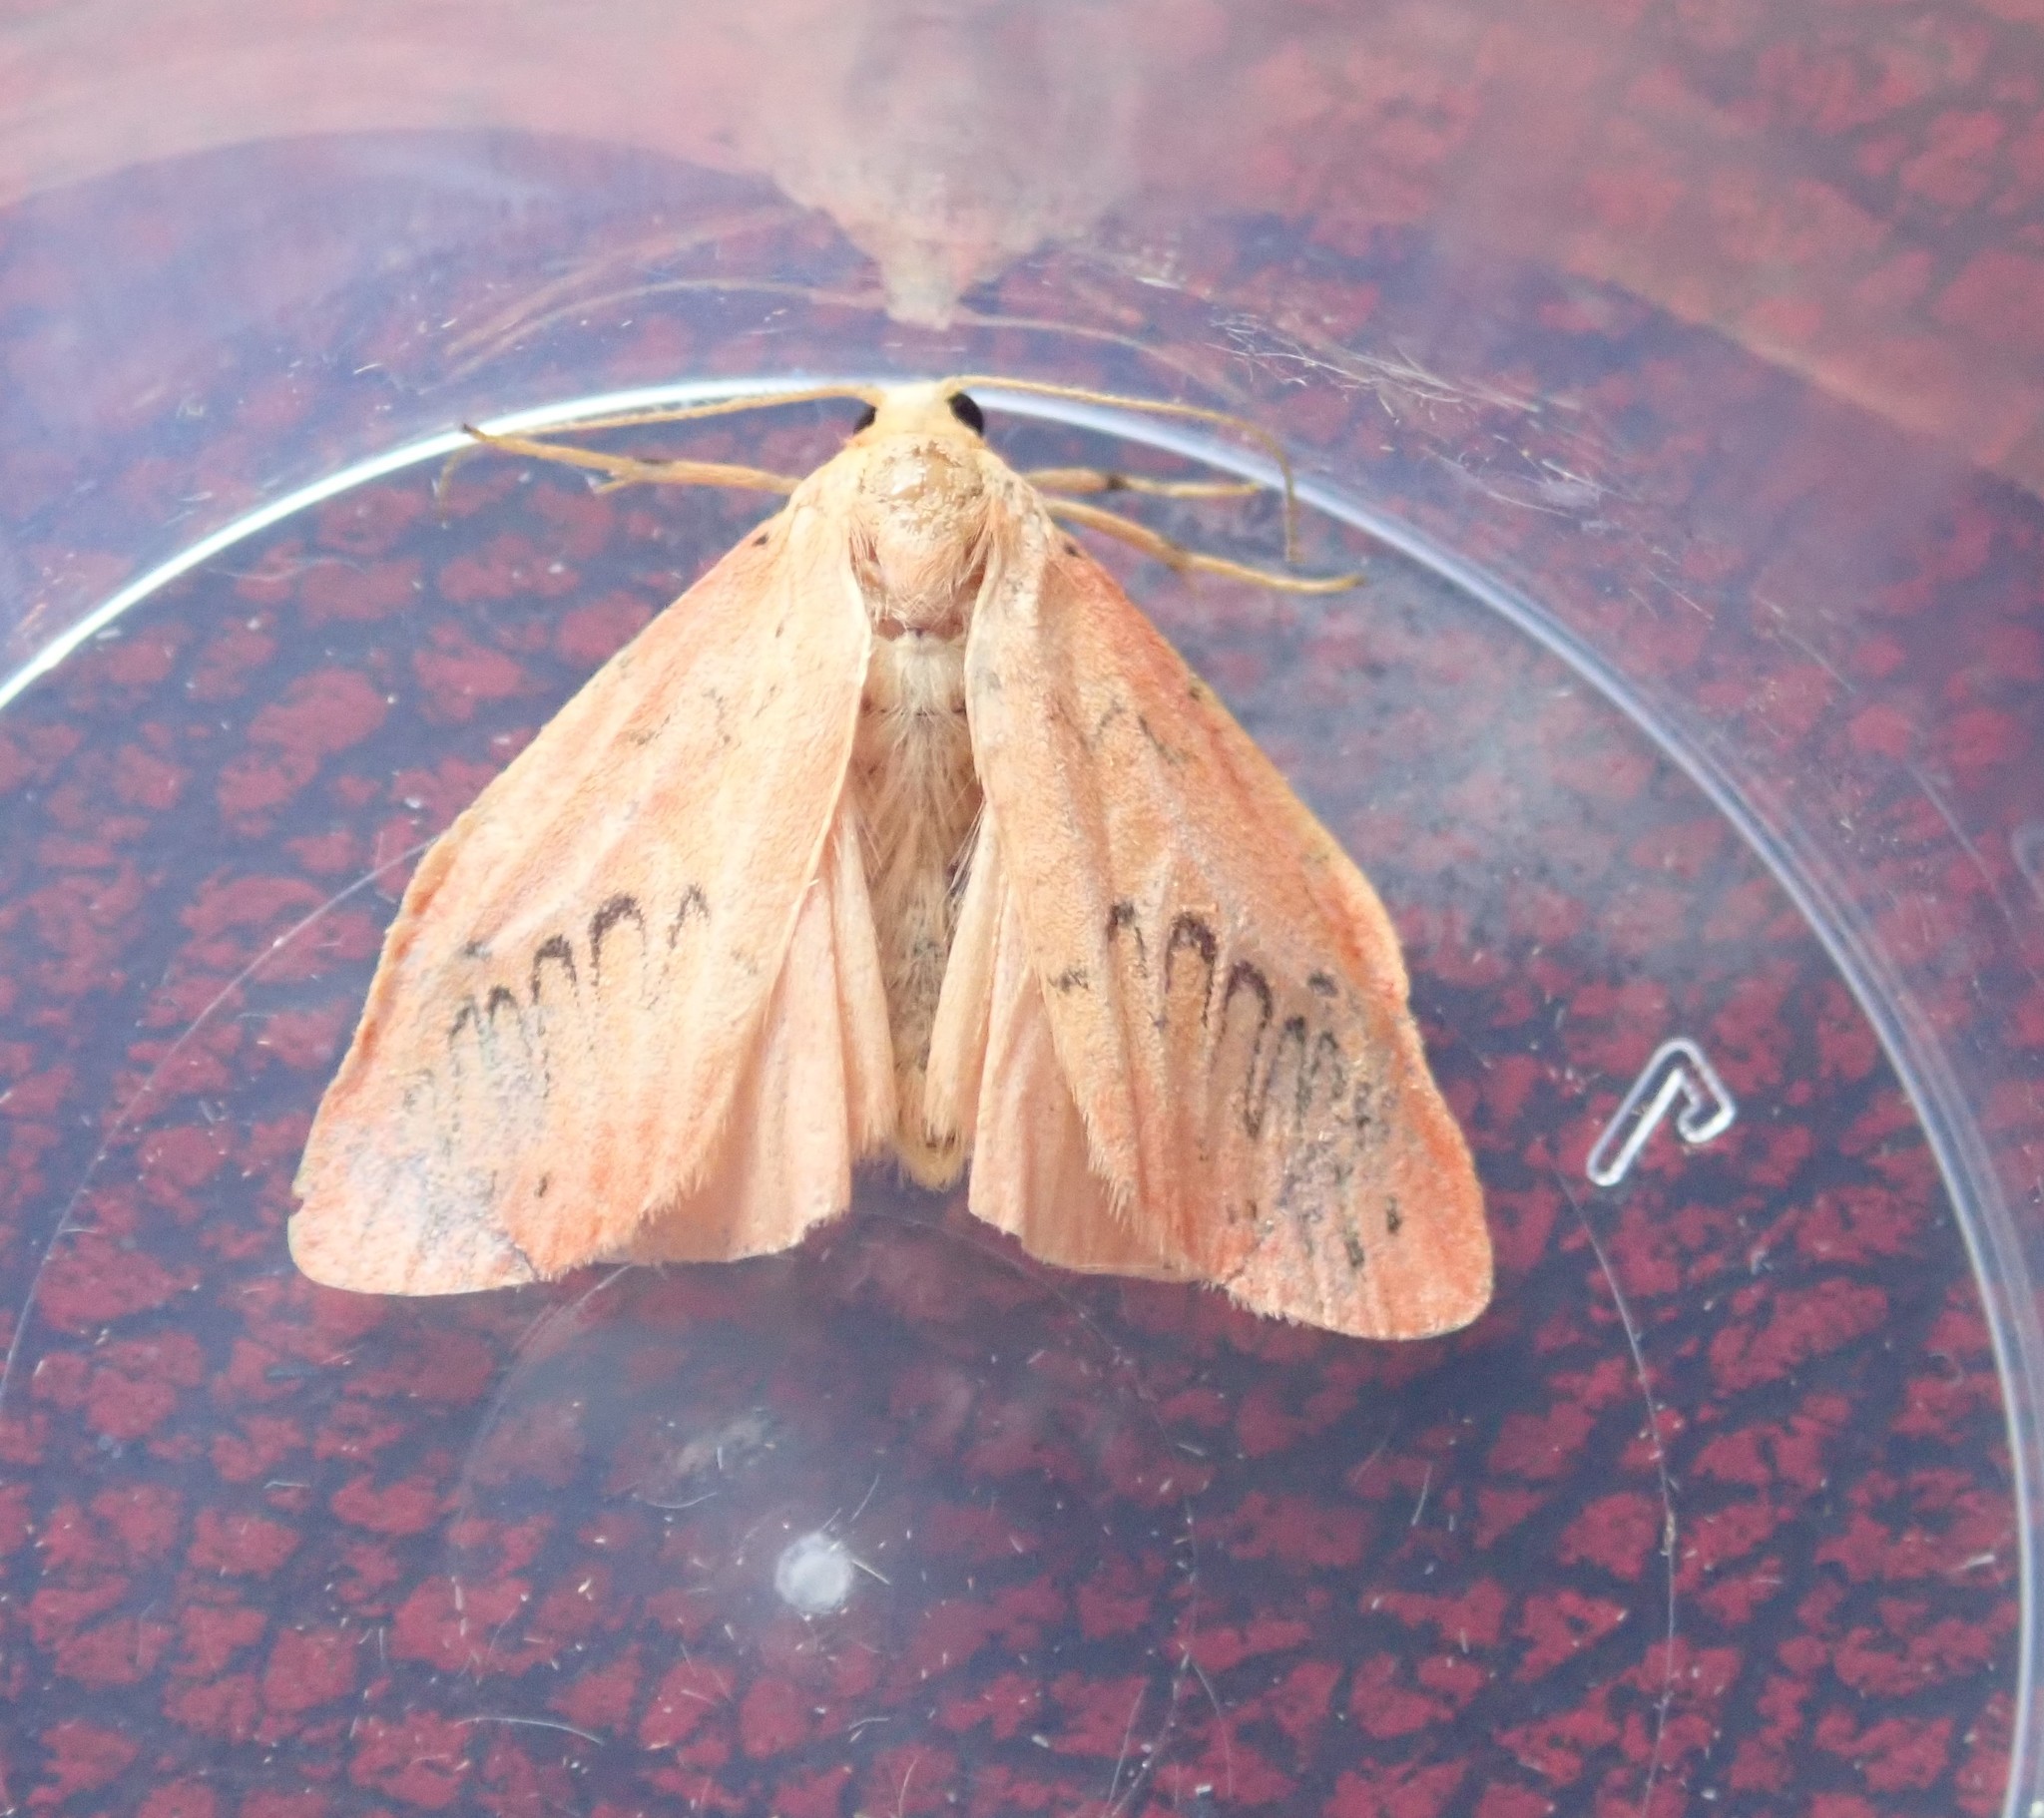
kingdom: Animalia
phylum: Arthropoda
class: Insecta
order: Lepidoptera
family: Erebidae
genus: Miltochrista
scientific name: Miltochrista miniata
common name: Rosy footman
